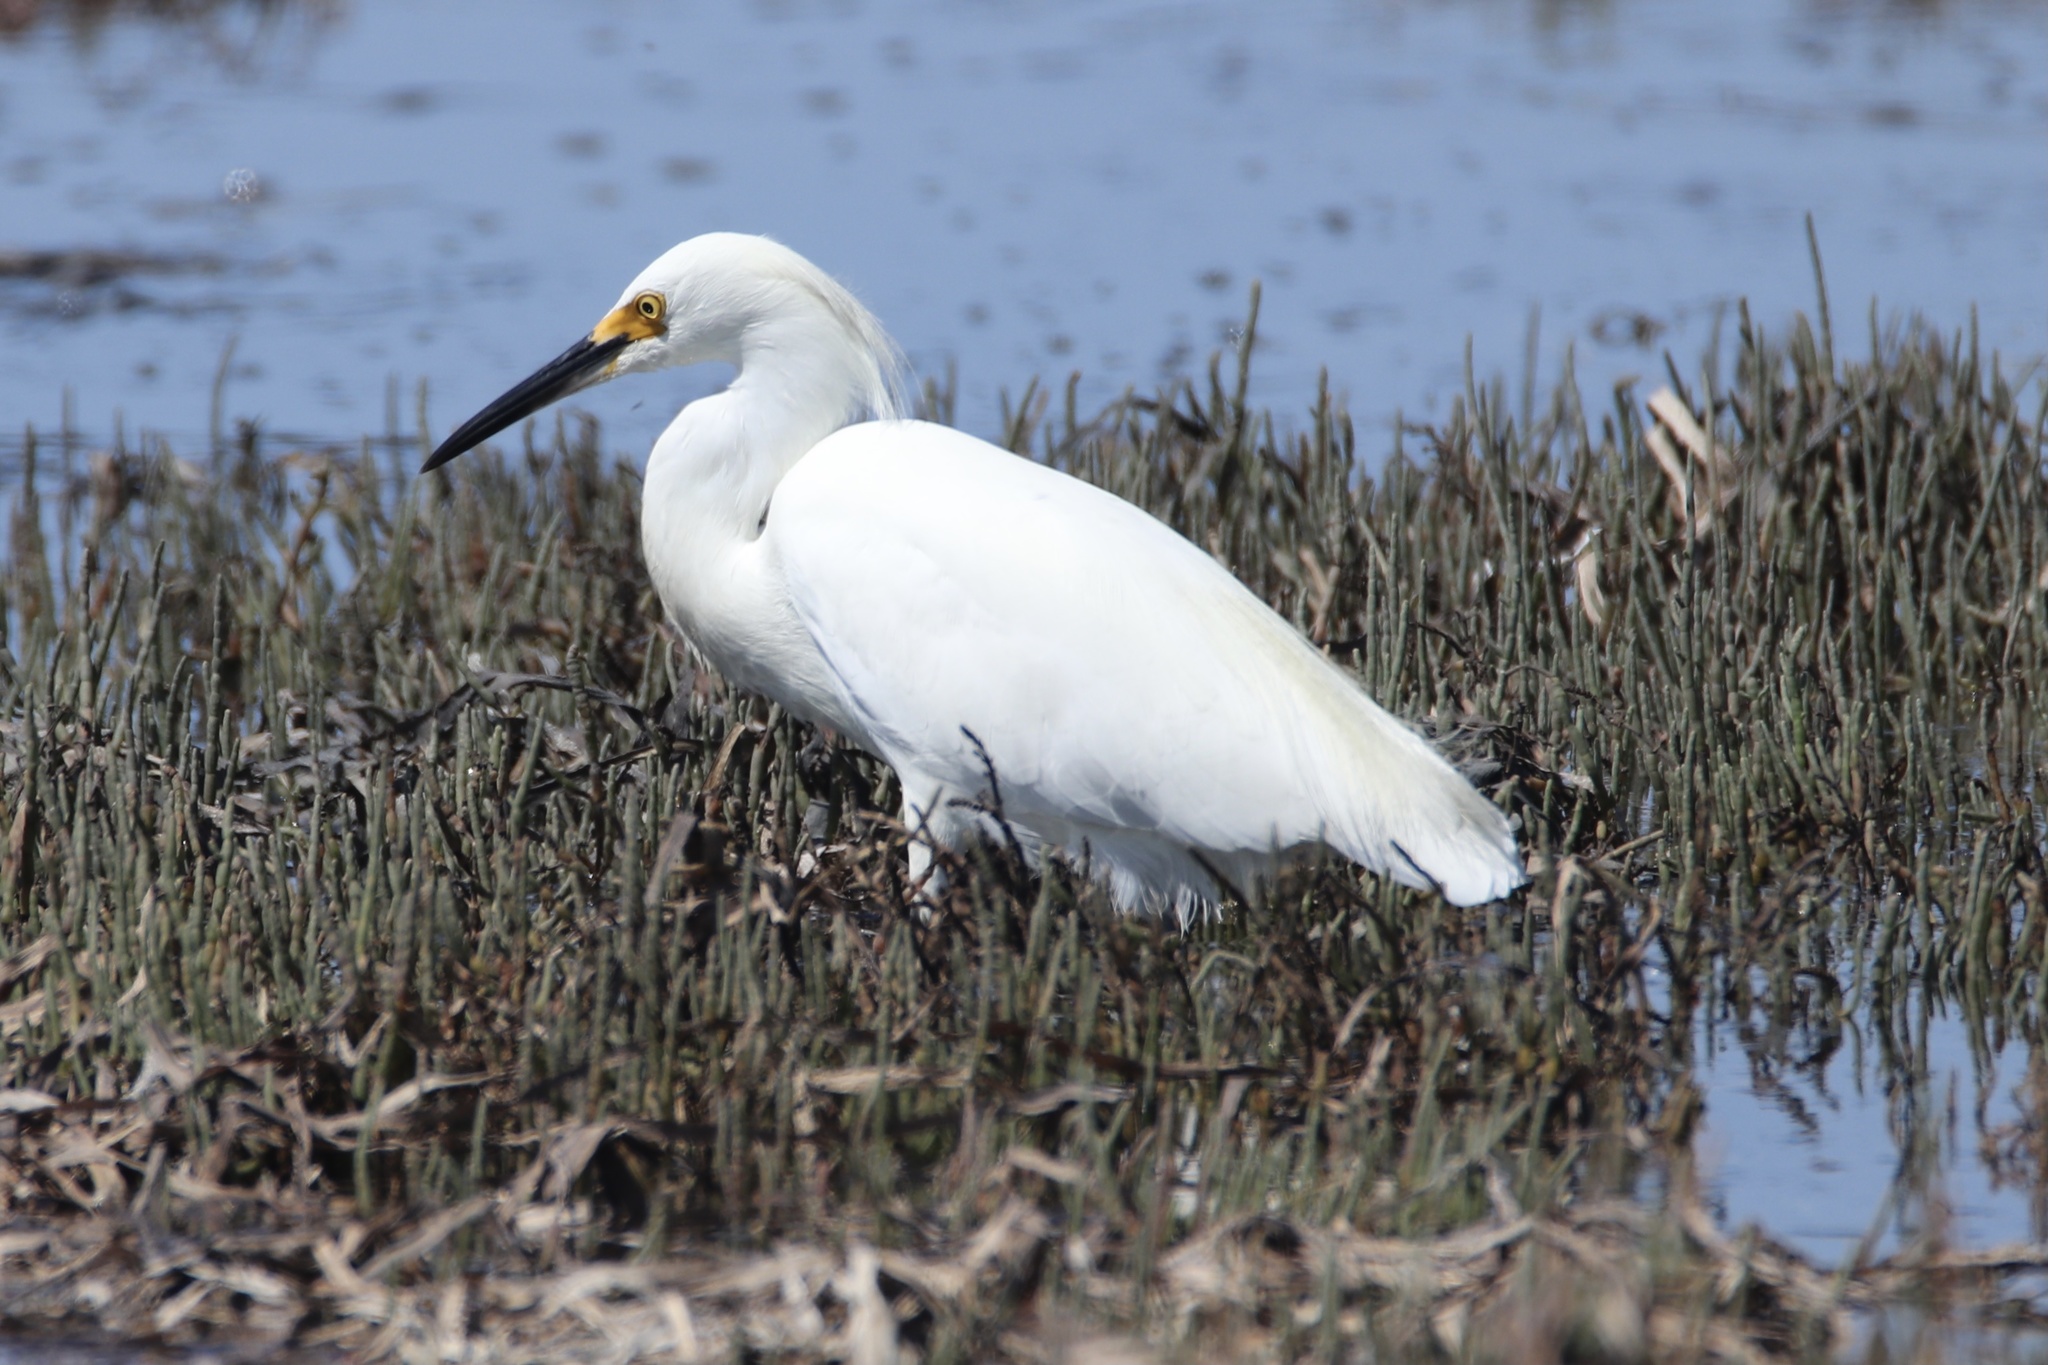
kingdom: Animalia
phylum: Chordata
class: Aves
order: Pelecaniformes
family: Ardeidae
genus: Egretta
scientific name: Egretta thula
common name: Snowy egret
